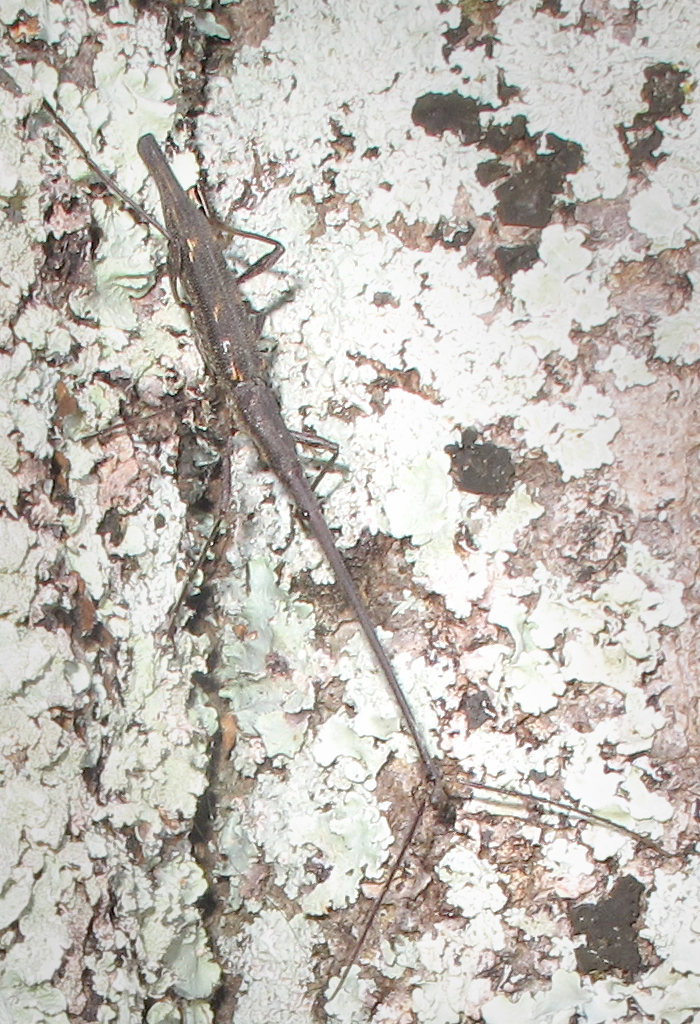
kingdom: Animalia
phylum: Arthropoda
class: Insecta
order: Coleoptera
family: Brentidae
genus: Lasiorhynchus
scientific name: Lasiorhynchus barbicornis
